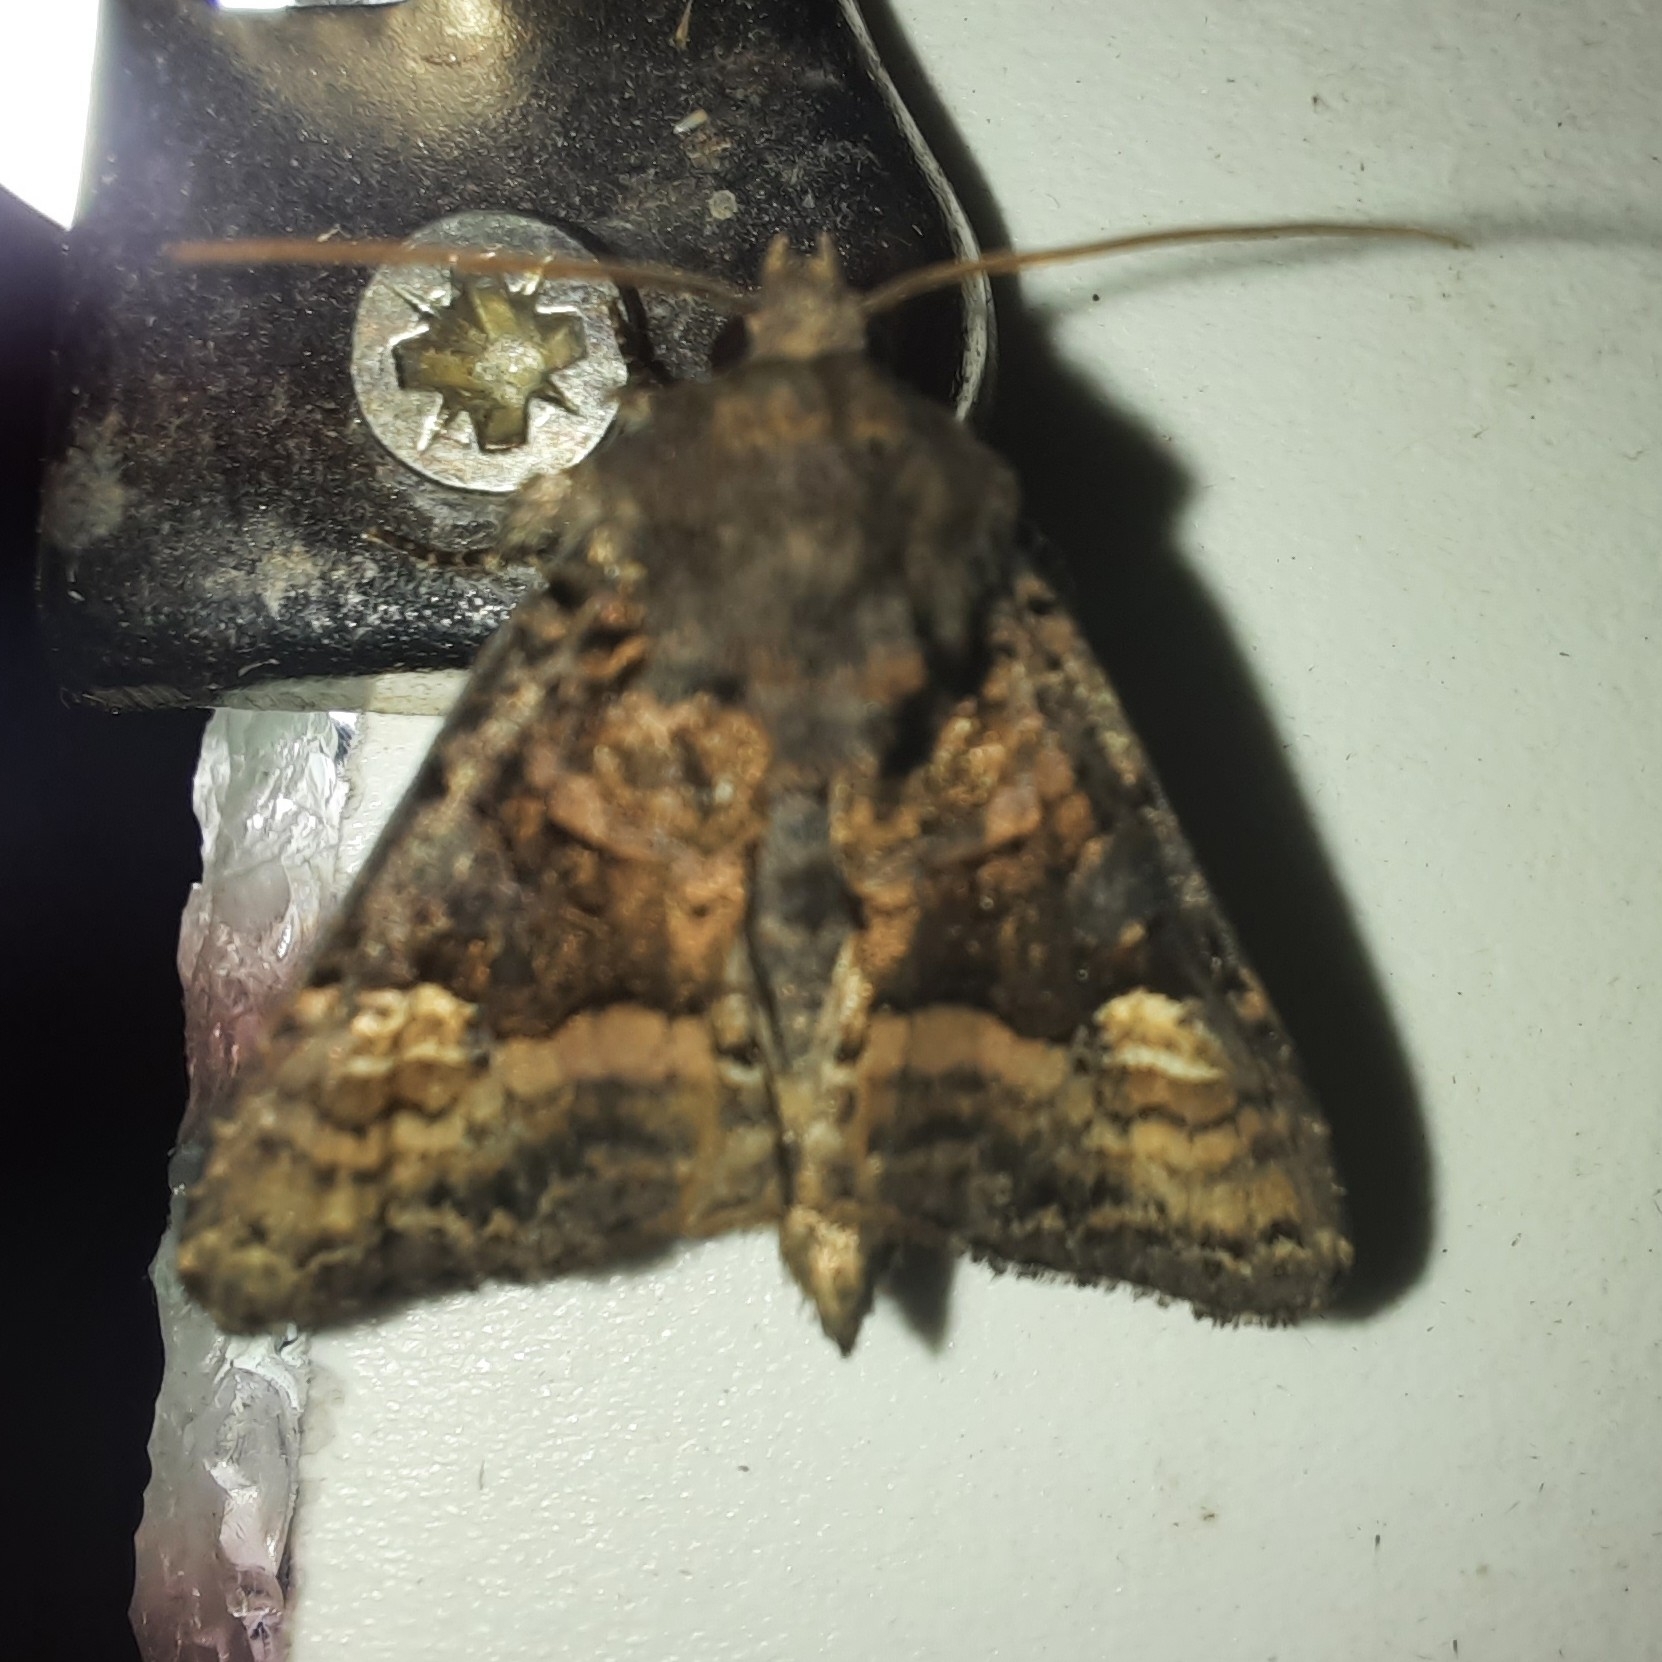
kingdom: Animalia
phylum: Arthropoda
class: Insecta
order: Lepidoptera
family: Noctuidae
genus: Euplexia
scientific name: Euplexia lucipara
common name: Small angle shades
